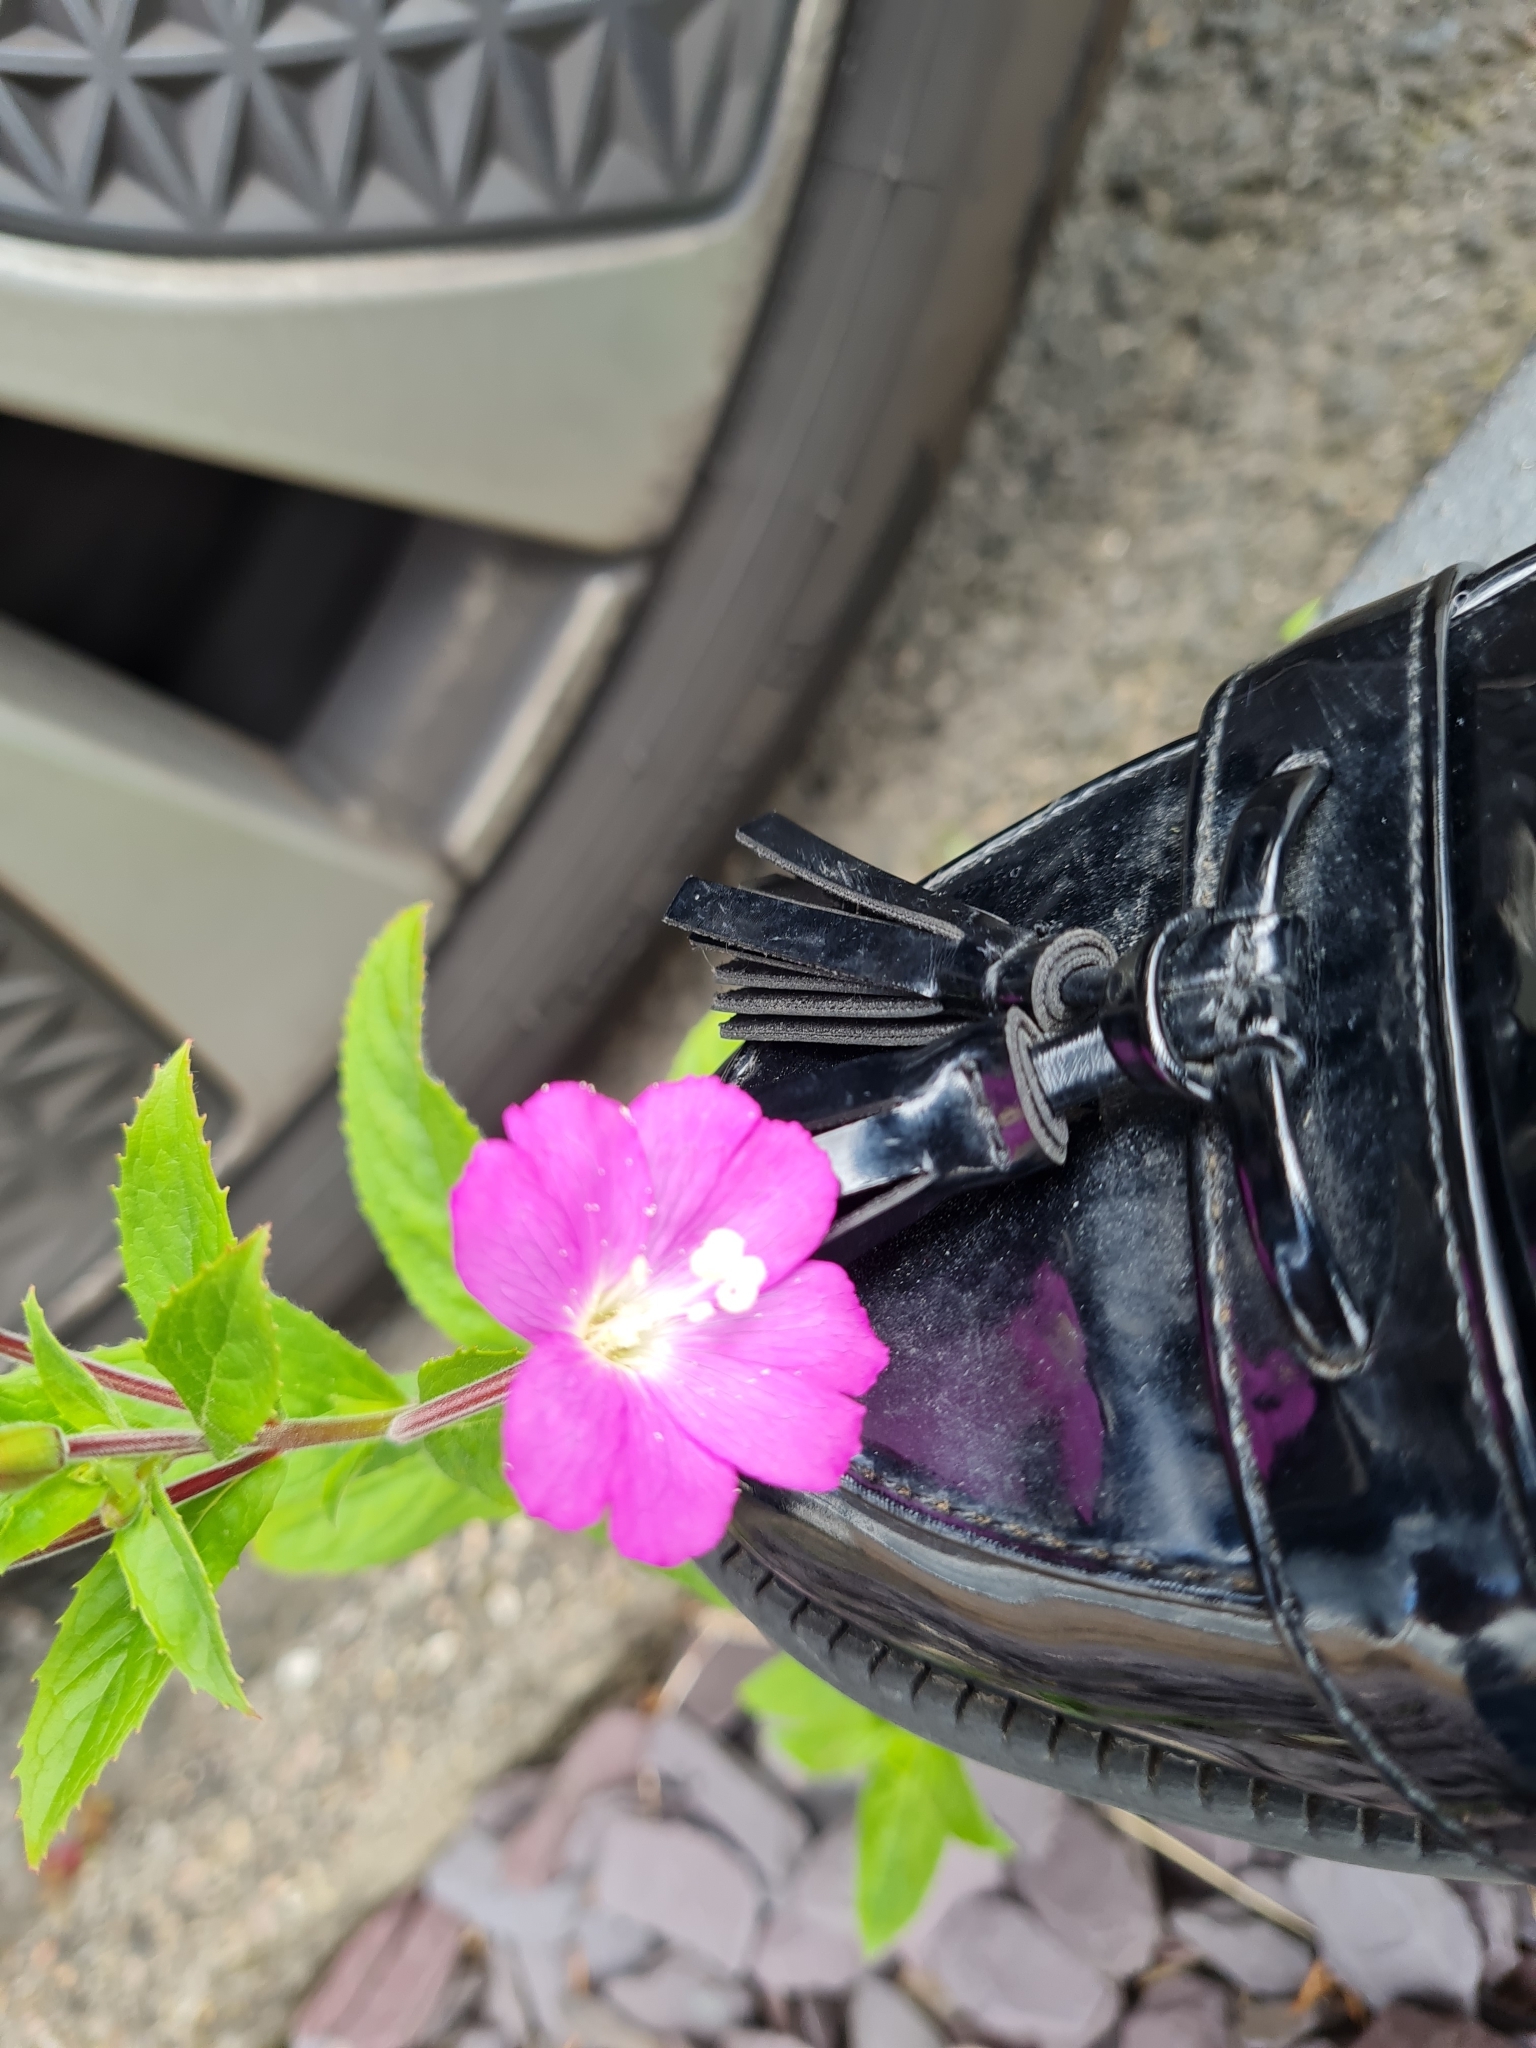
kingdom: Plantae
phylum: Tracheophyta
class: Magnoliopsida
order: Myrtales
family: Onagraceae
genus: Epilobium
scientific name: Epilobium hirsutum
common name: Great willowherb
